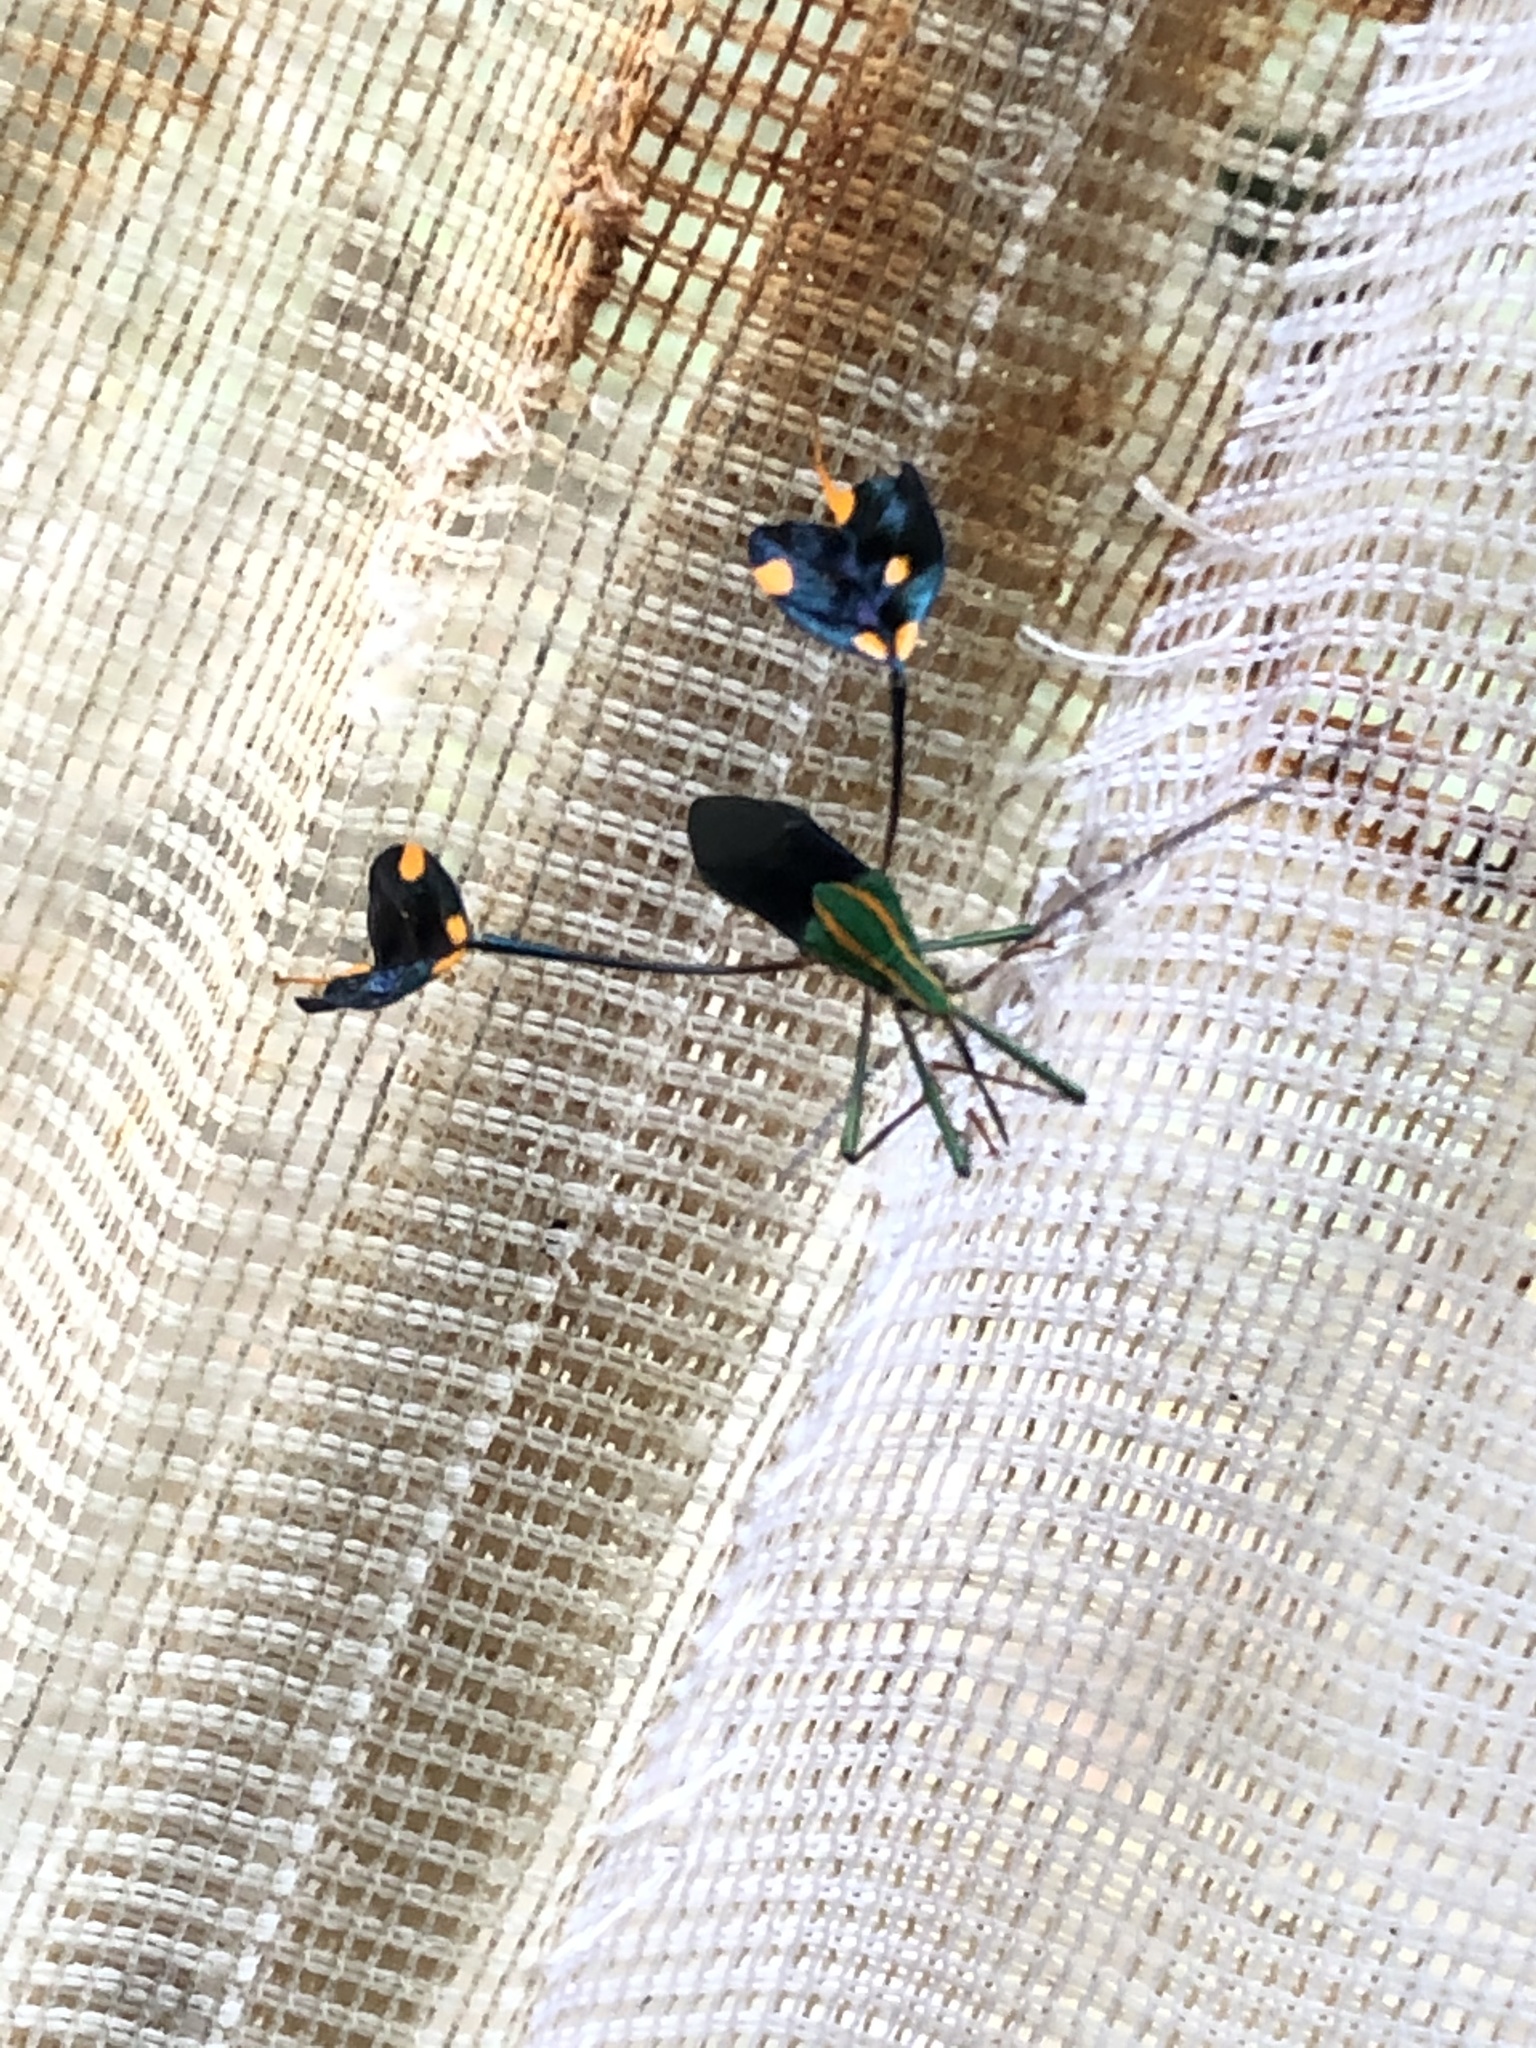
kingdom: Animalia
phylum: Arthropoda
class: Insecta
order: Hemiptera
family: Coreidae
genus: Diactor
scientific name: Diactor bilineatus
